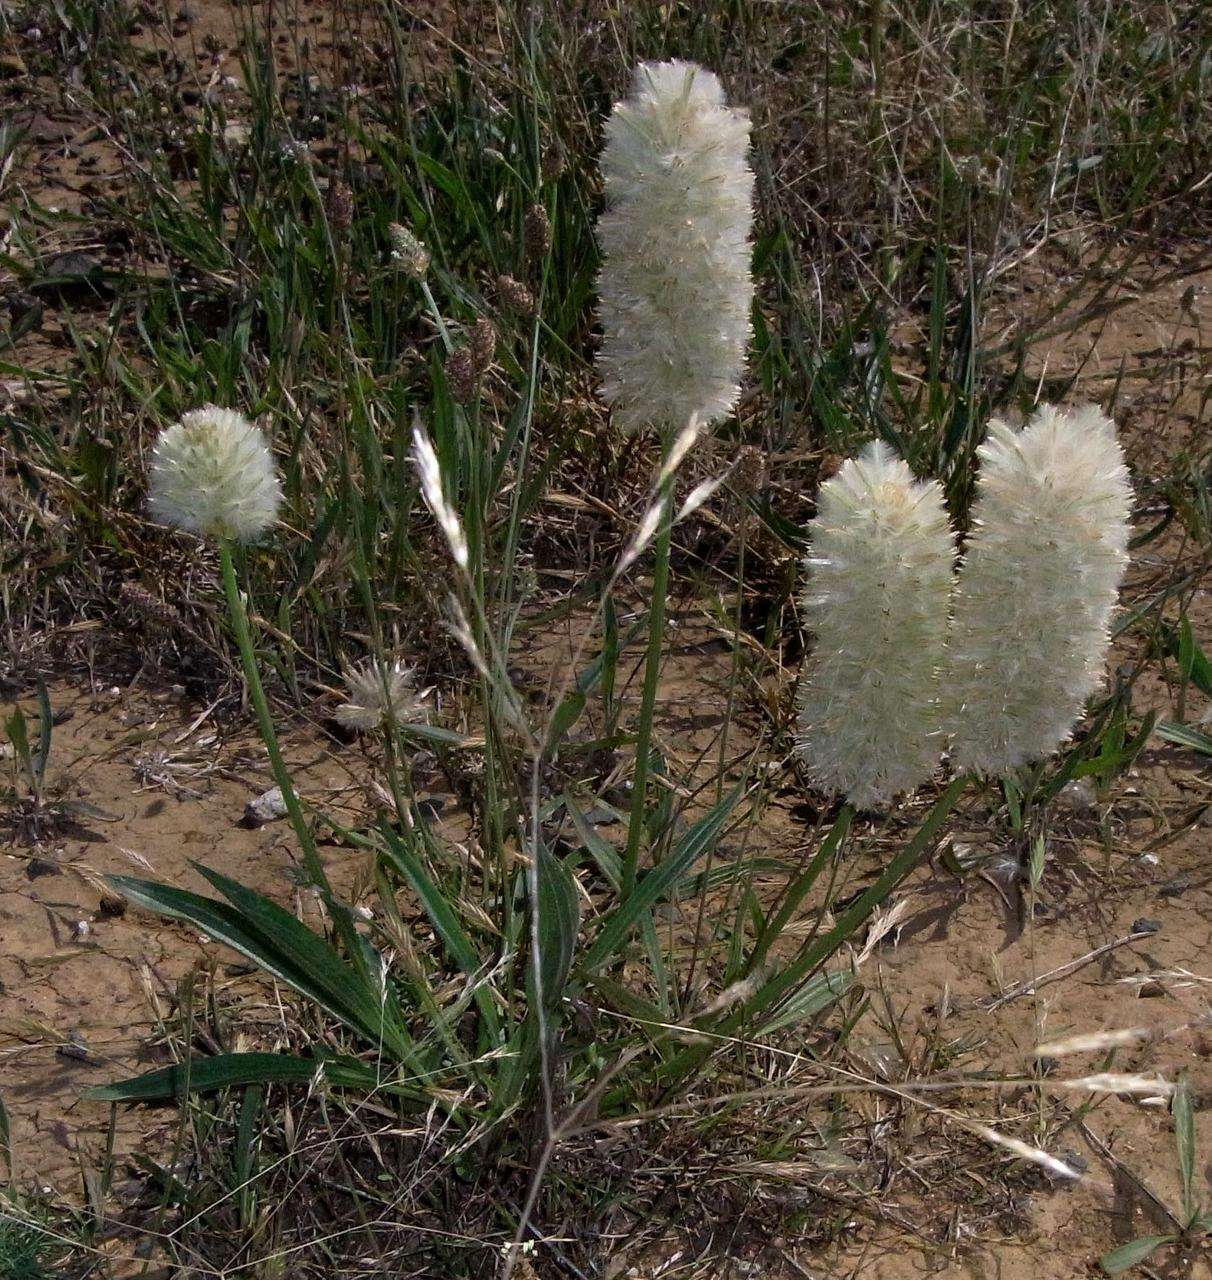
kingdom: Plantae
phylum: Tracheophyta
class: Magnoliopsida
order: Caryophyllales
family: Amaranthaceae
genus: Ptilotus
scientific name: Ptilotus macrocephalus
